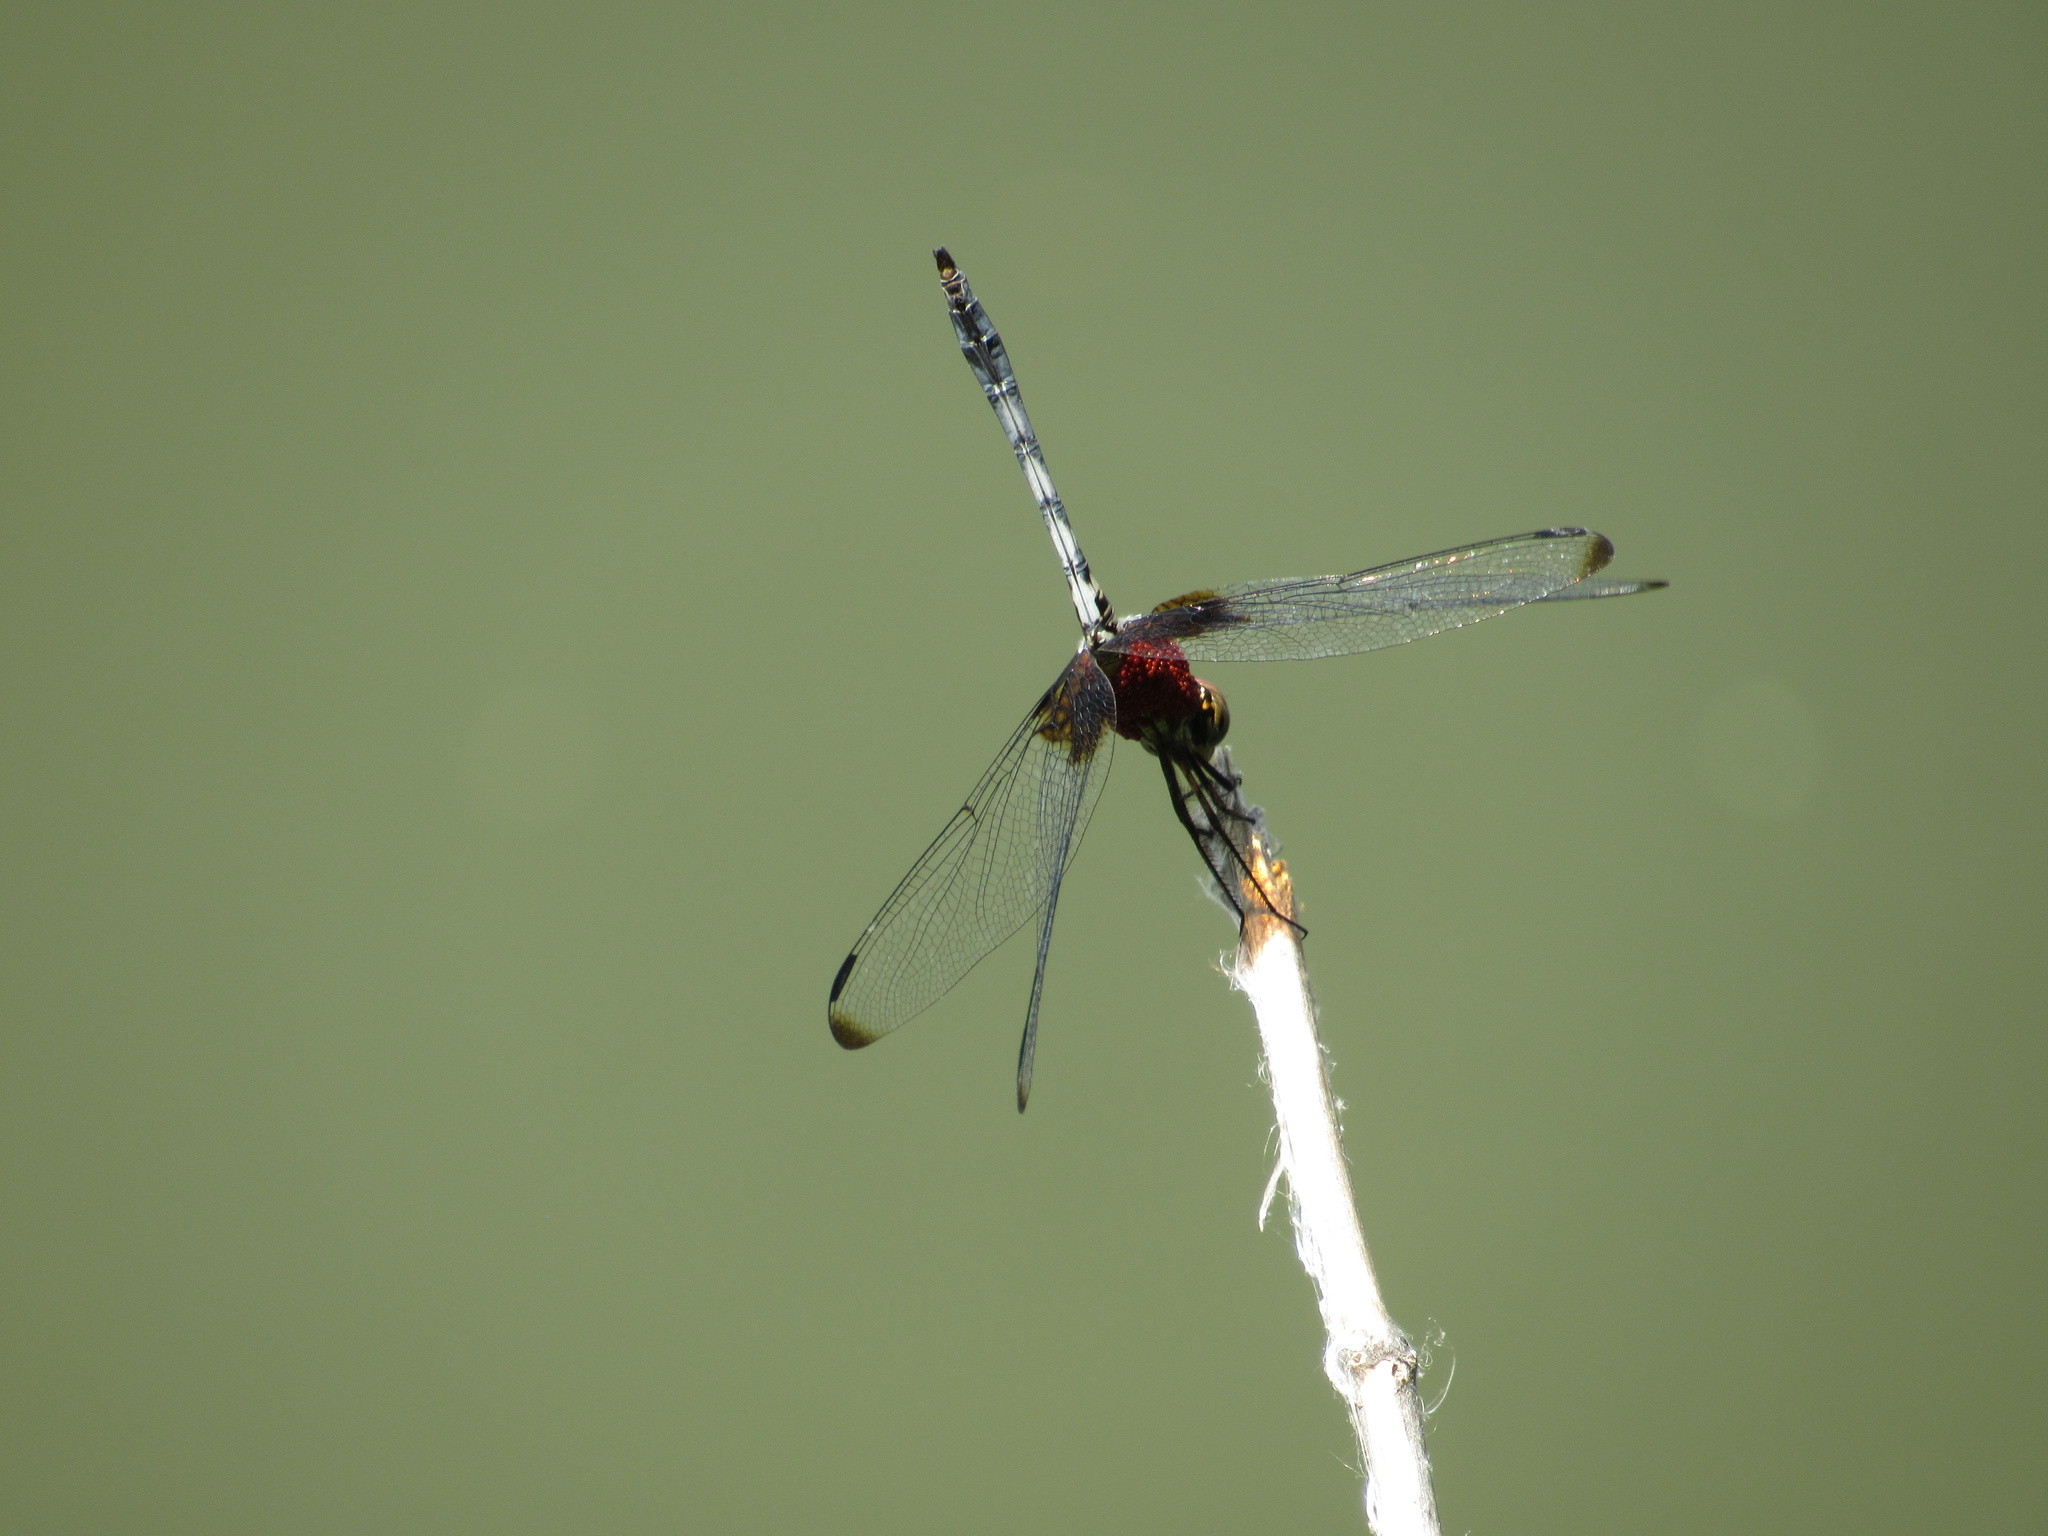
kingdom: Animalia
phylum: Arthropoda
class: Insecta
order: Odonata
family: Libellulidae
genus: Dythemis
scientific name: Dythemis fugax
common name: Checkered setwing
